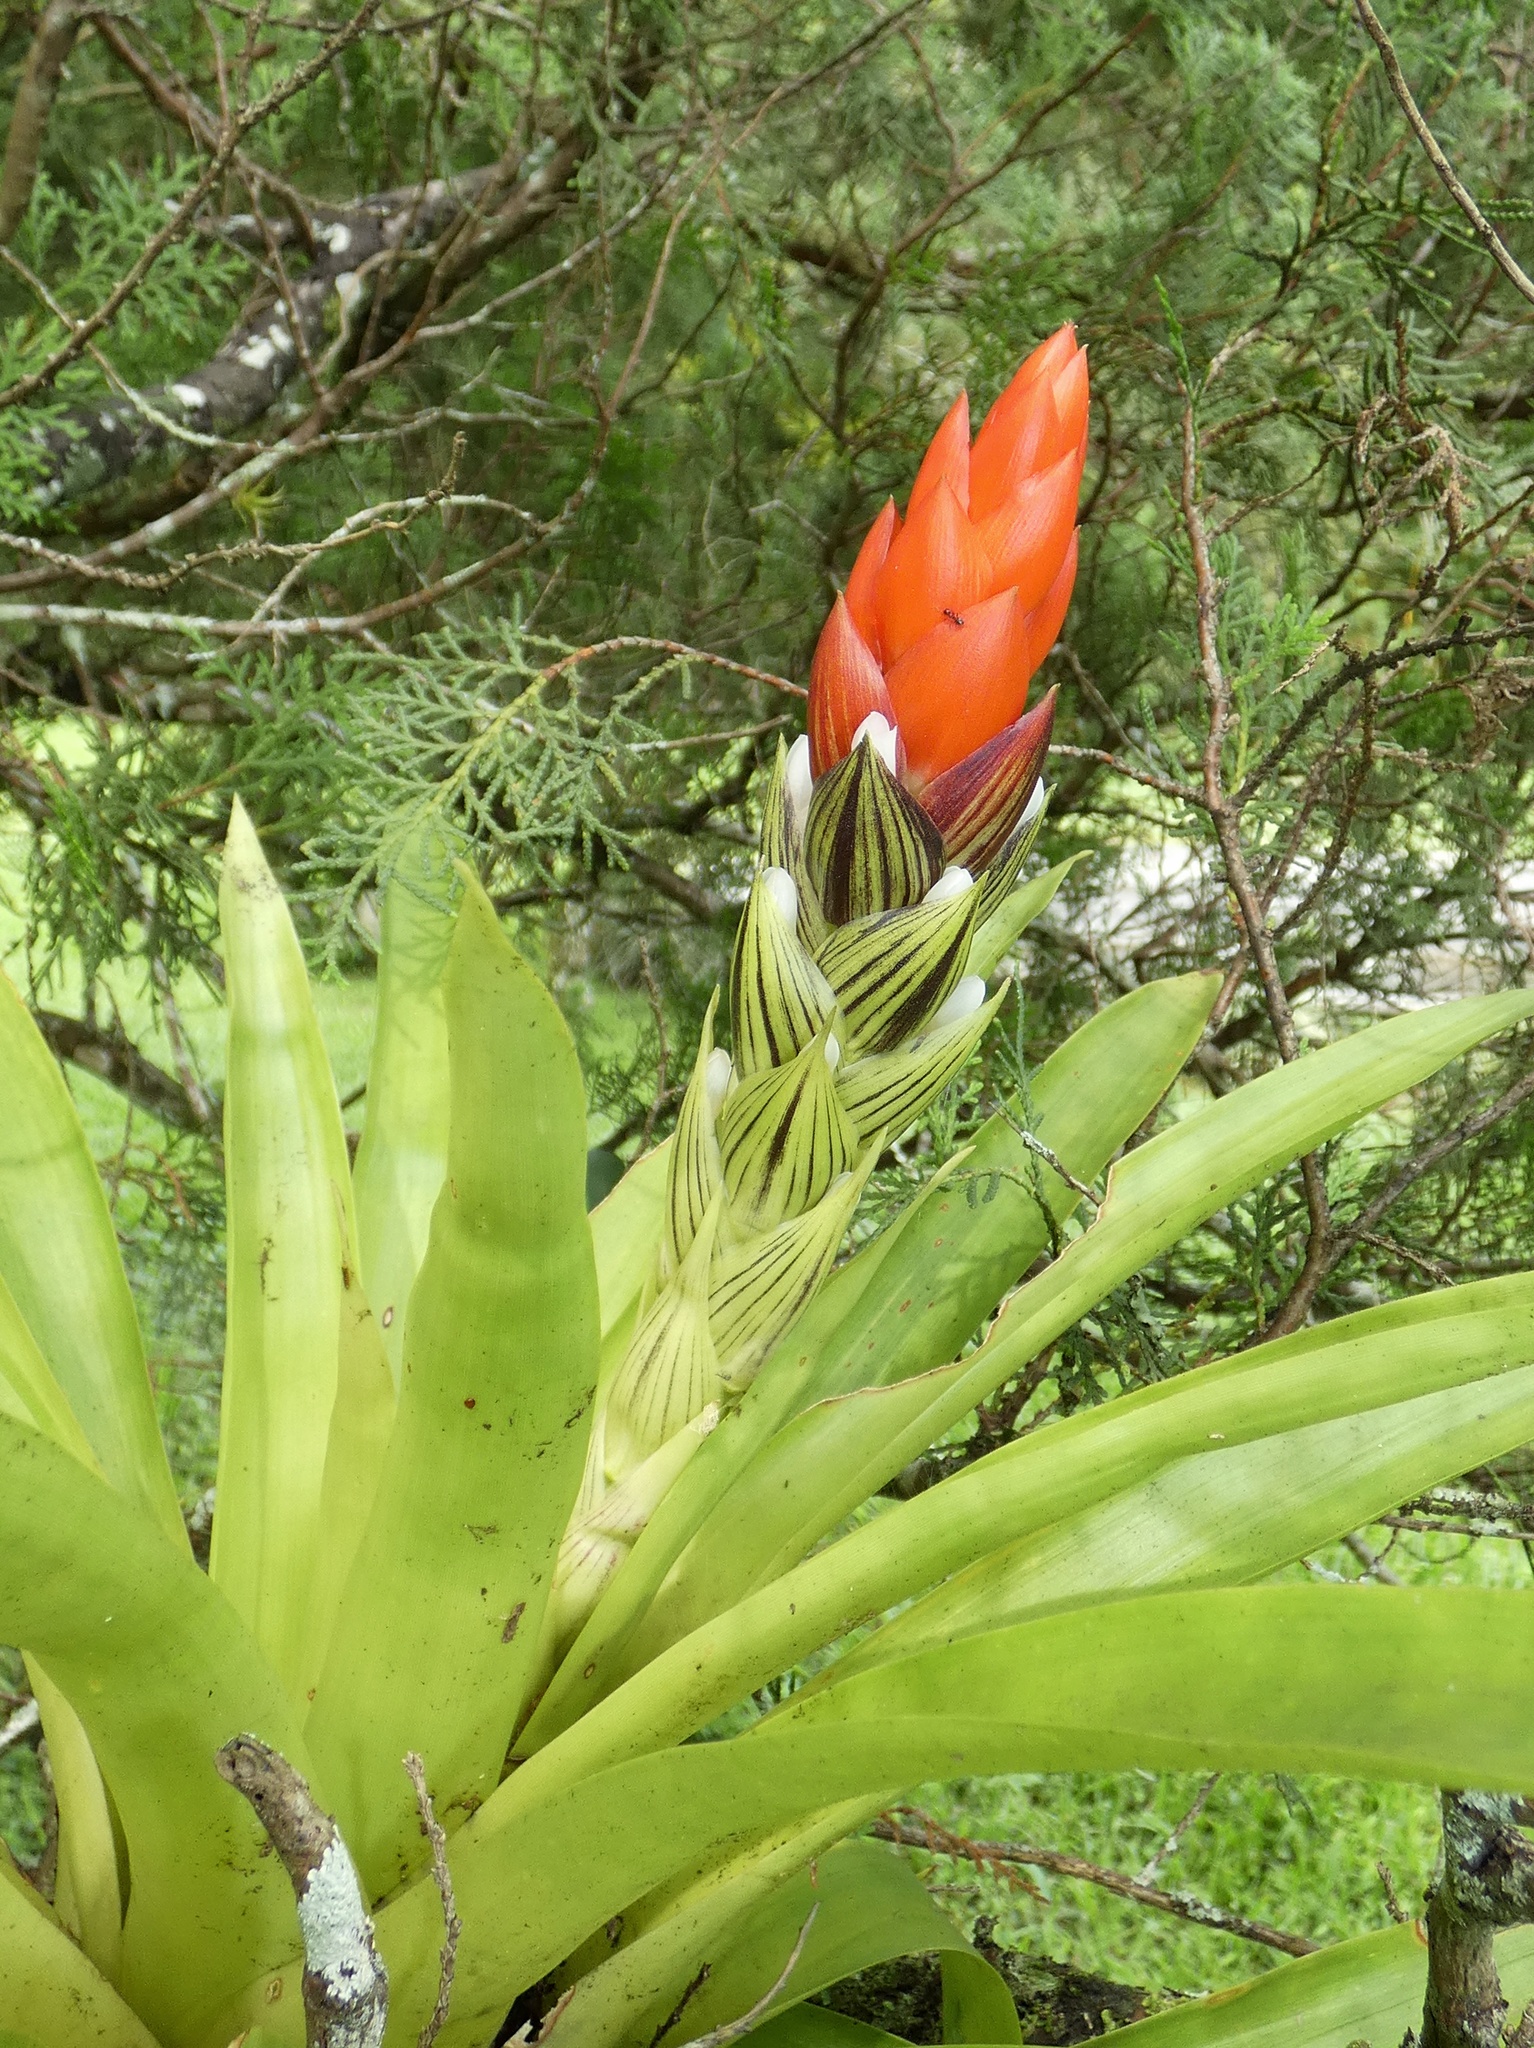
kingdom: Plantae
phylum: Tracheophyta
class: Liliopsida
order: Poales
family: Bromeliaceae
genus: Guzmania
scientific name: Guzmania monostachia
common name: West indian tufted airplant
